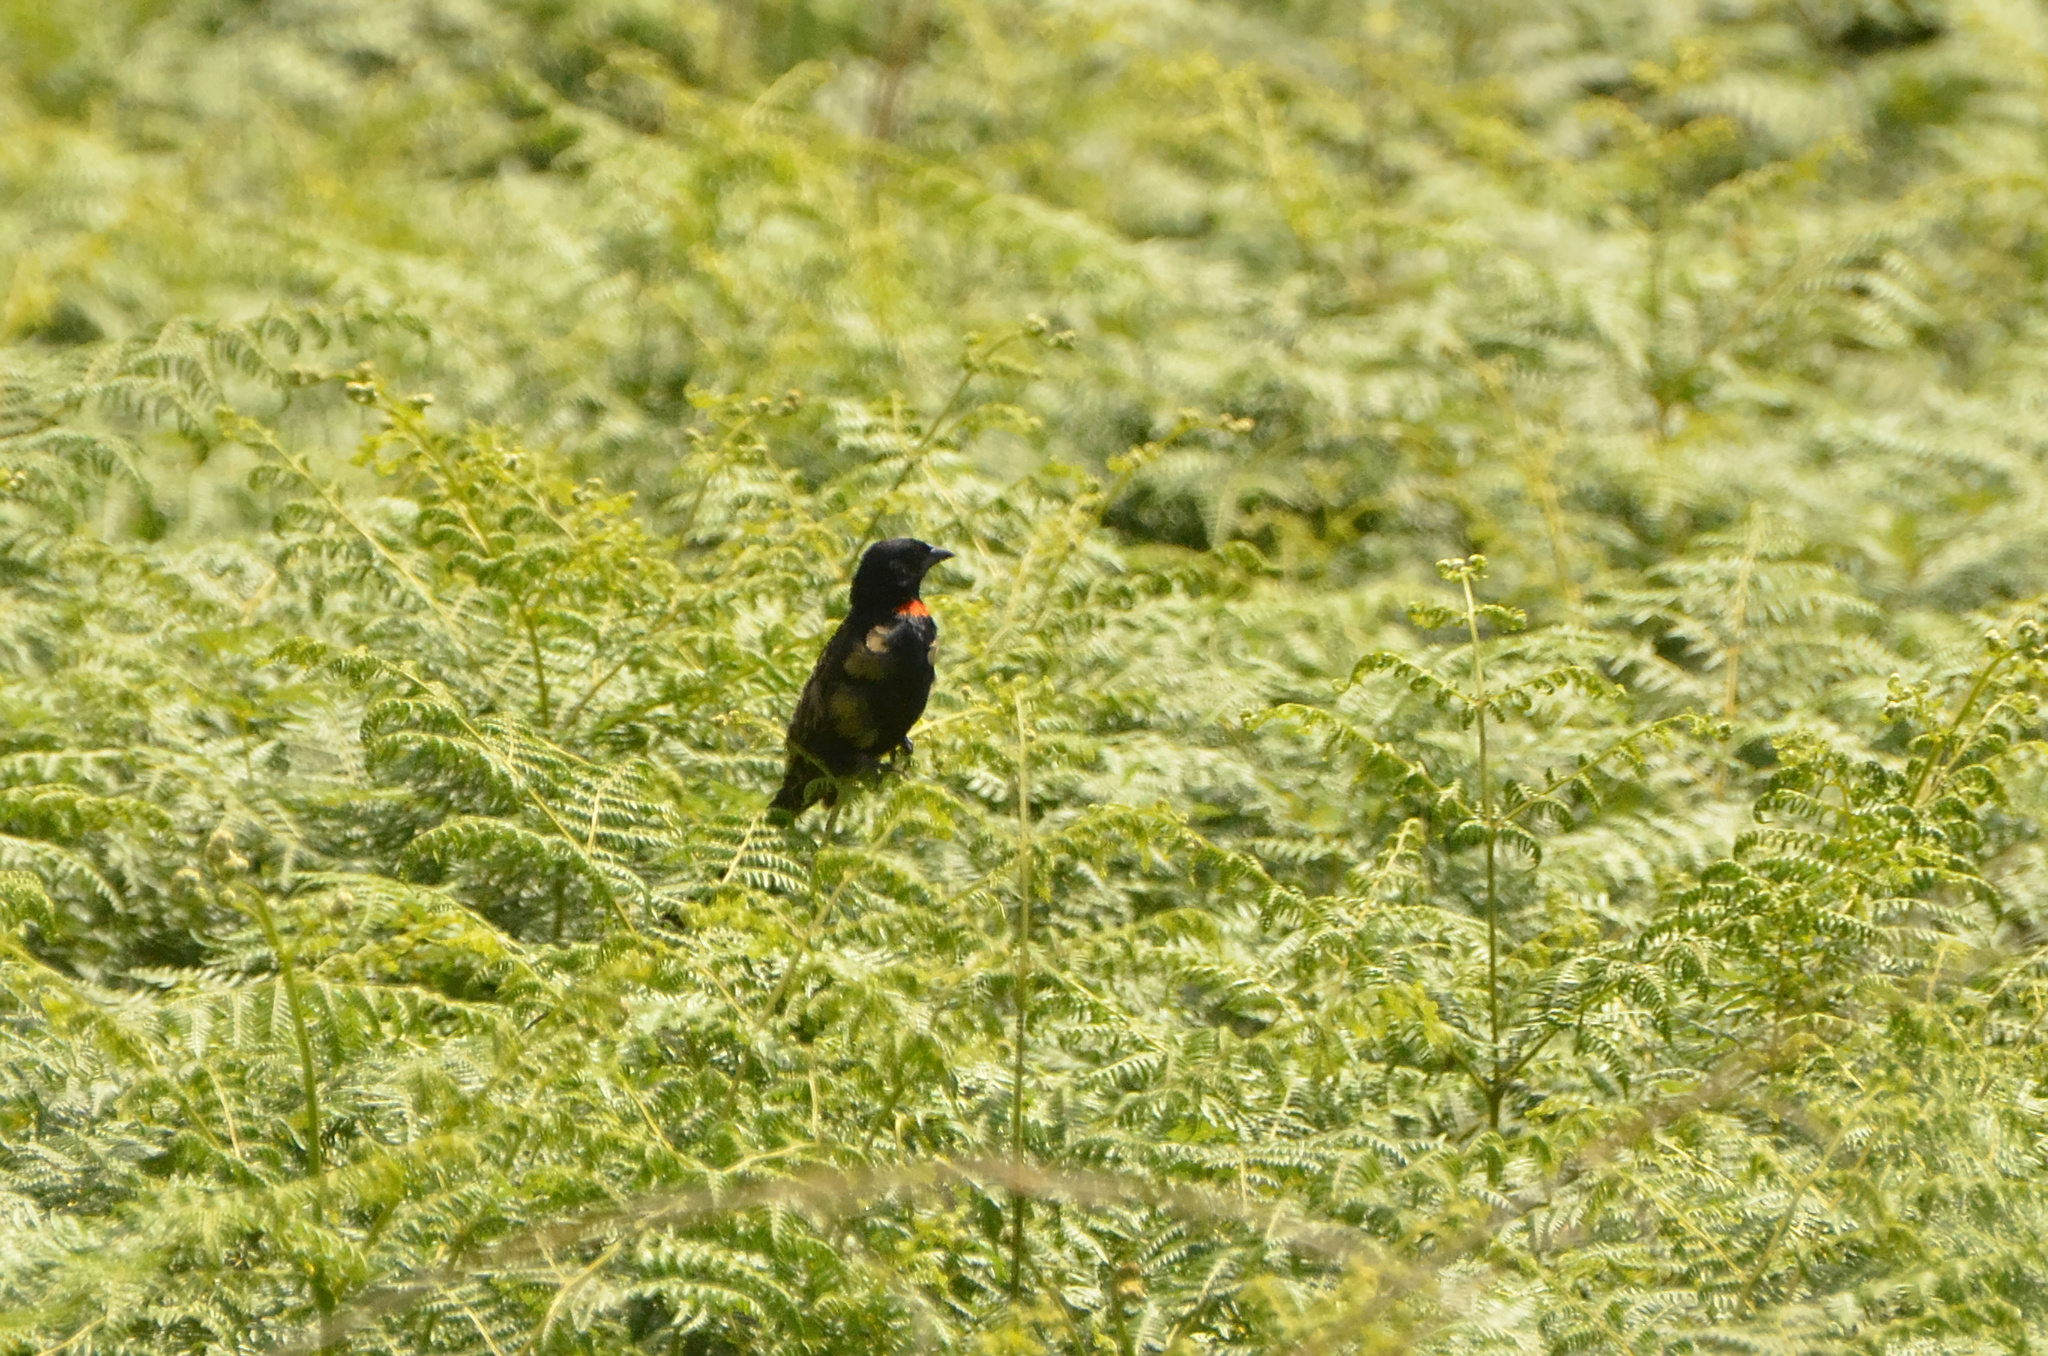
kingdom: Animalia
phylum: Chordata
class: Aves
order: Passeriformes
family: Ploceidae
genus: Euplectes
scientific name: Euplectes ardens
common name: Red-collared widowbird
